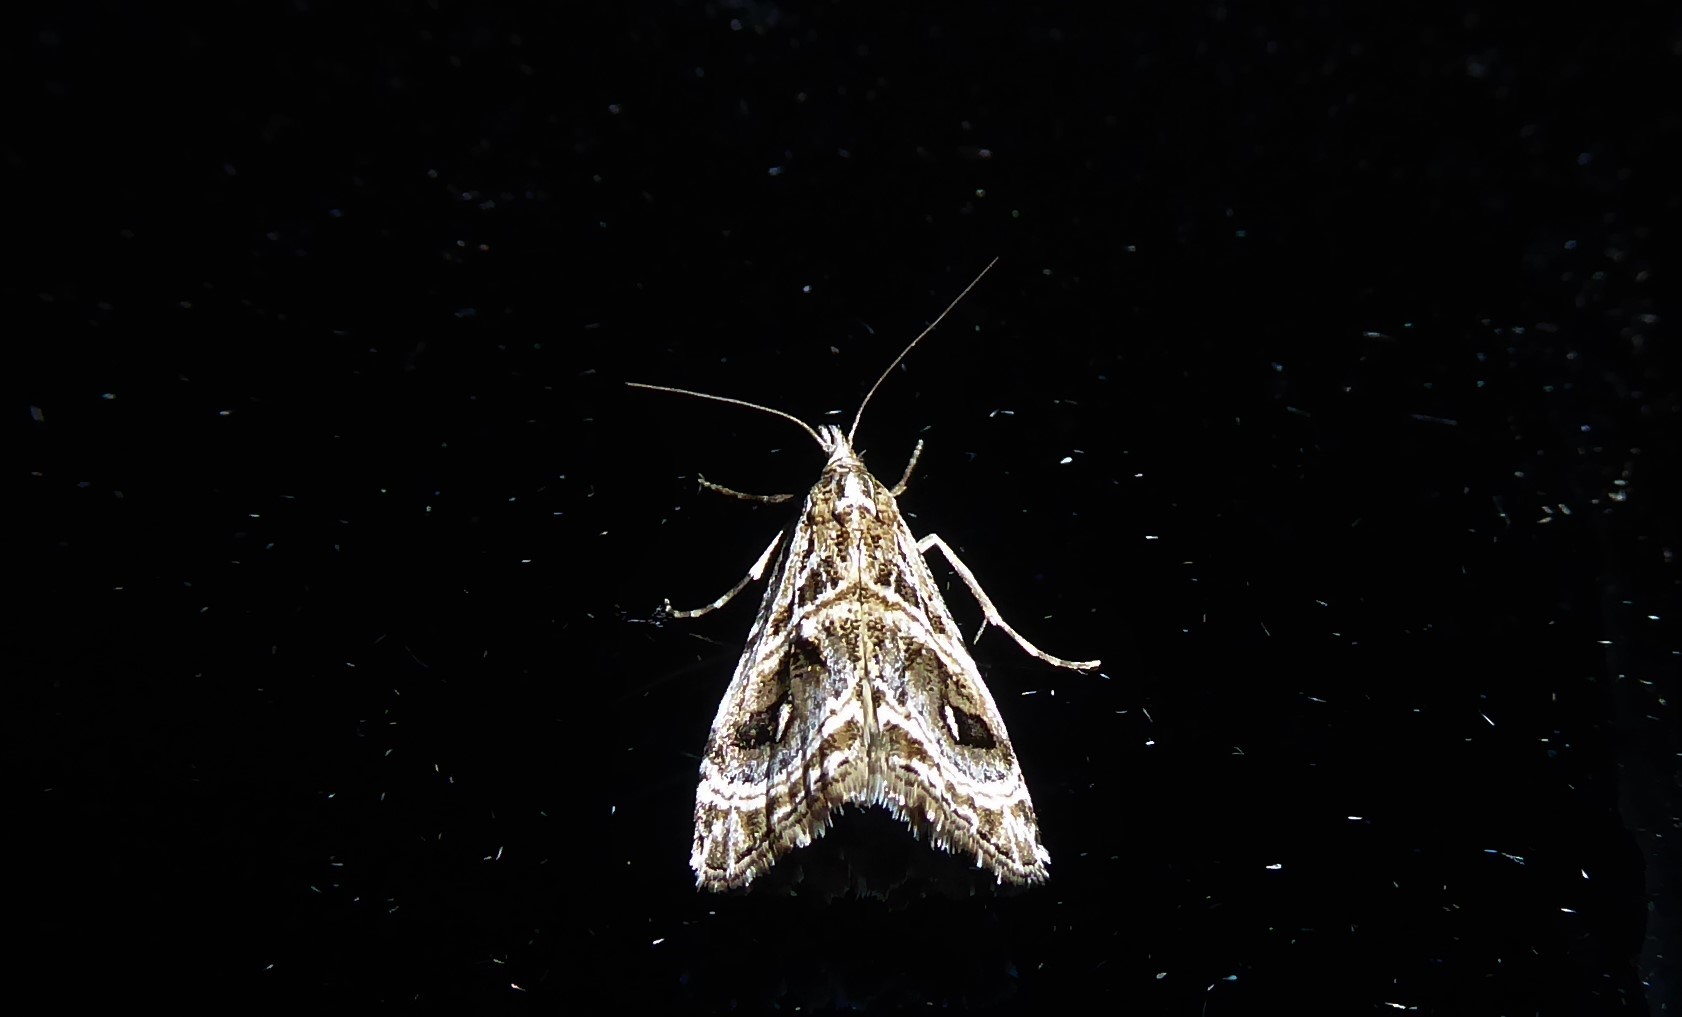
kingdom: Animalia
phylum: Arthropoda
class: Insecta
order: Lepidoptera
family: Crambidae
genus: Gadira
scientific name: Gadira acerella
